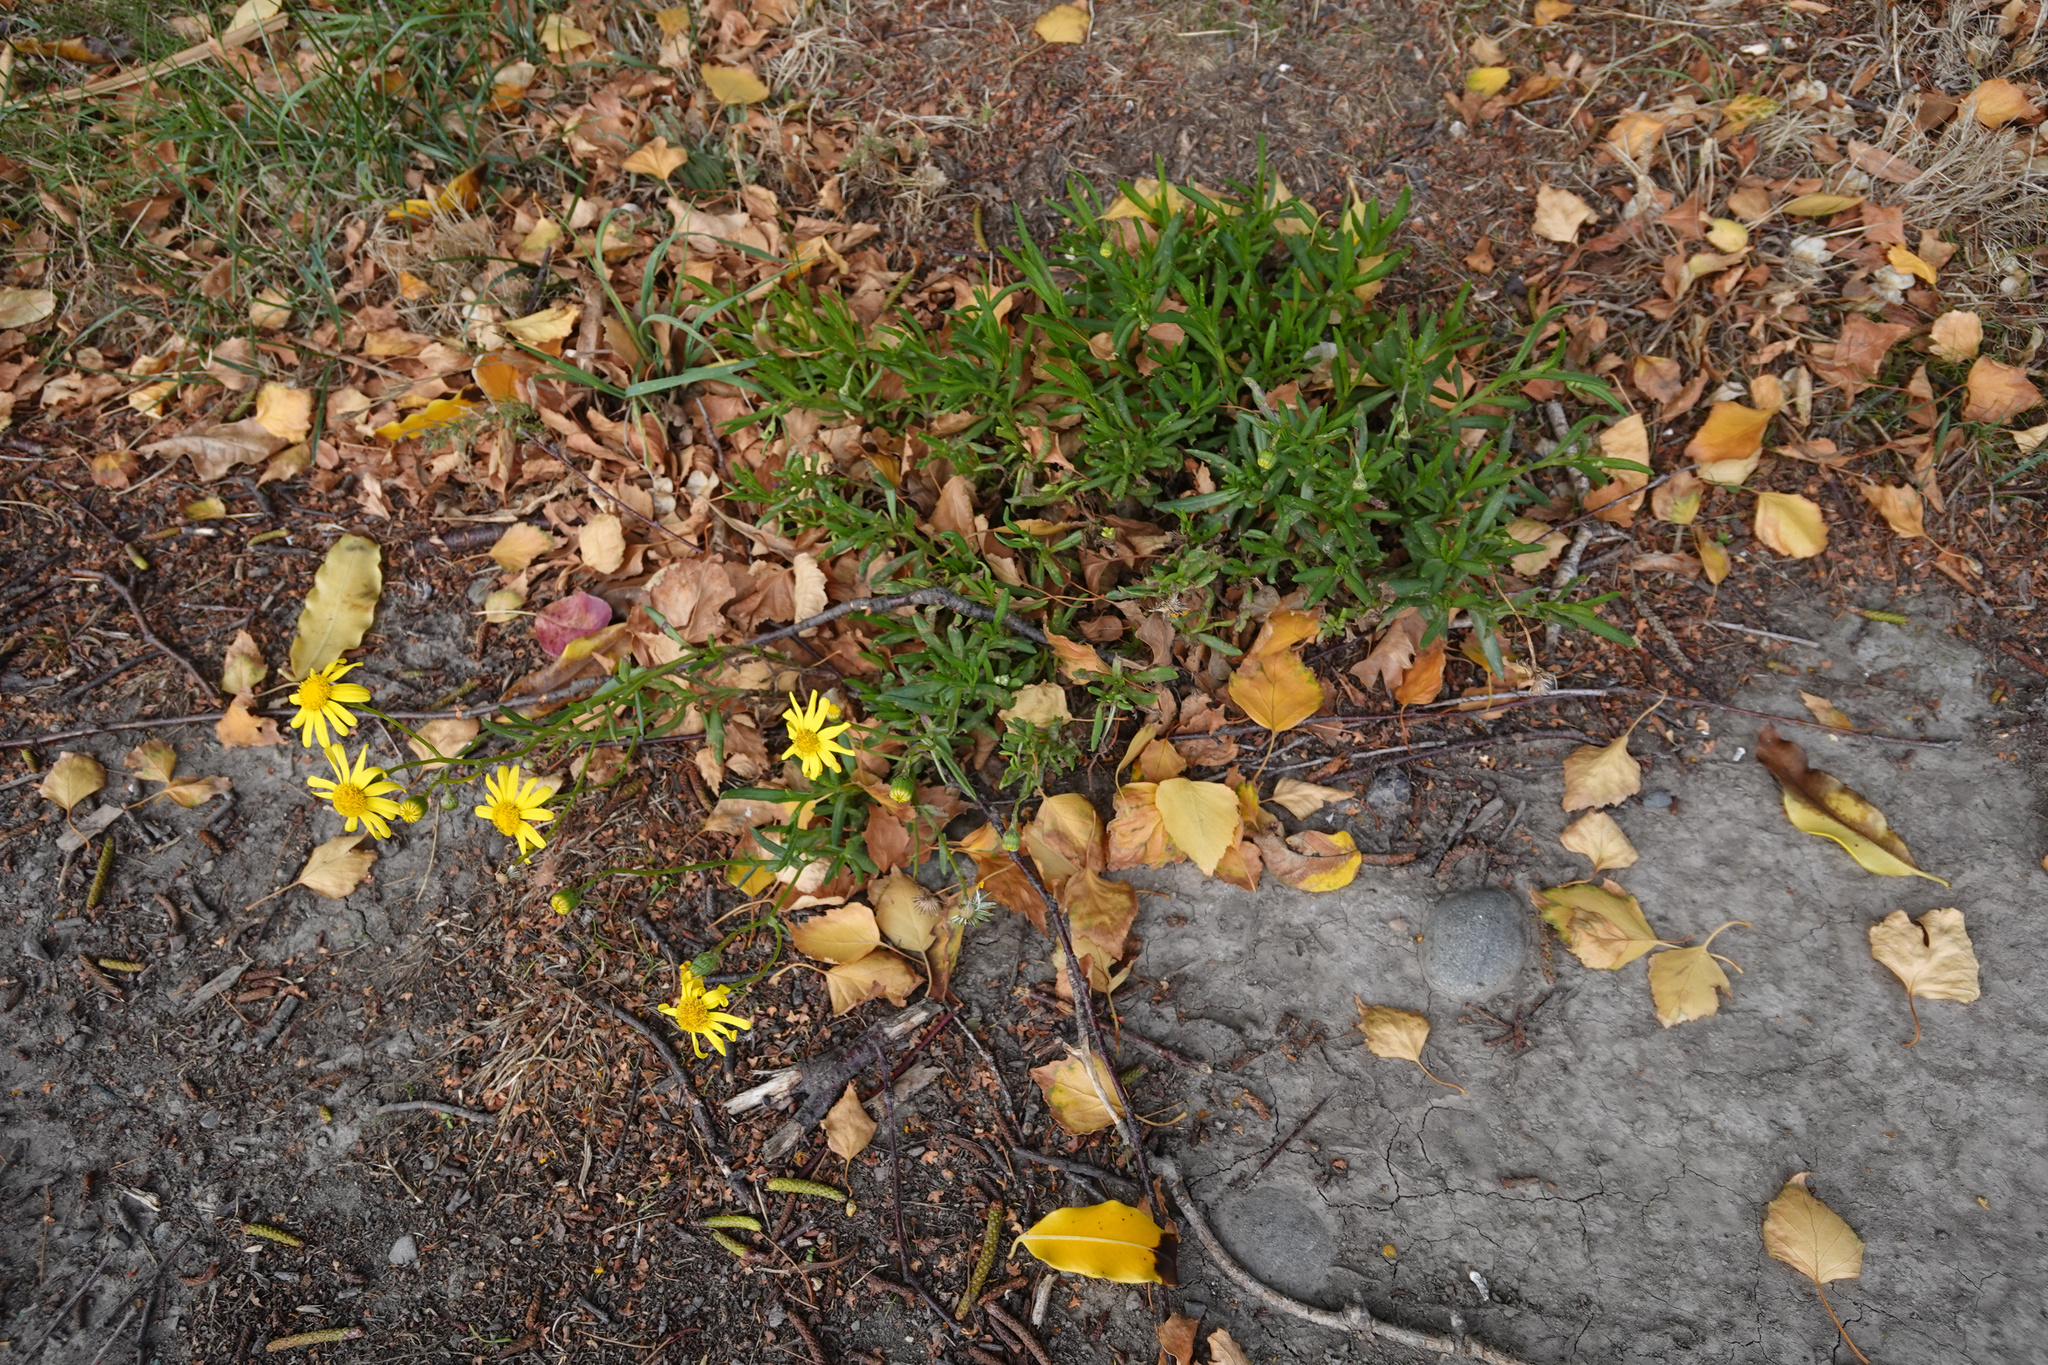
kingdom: Plantae
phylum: Tracheophyta
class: Magnoliopsida
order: Asterales
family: Asteraceae
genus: Senecio
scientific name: Senecio skirrhodon
